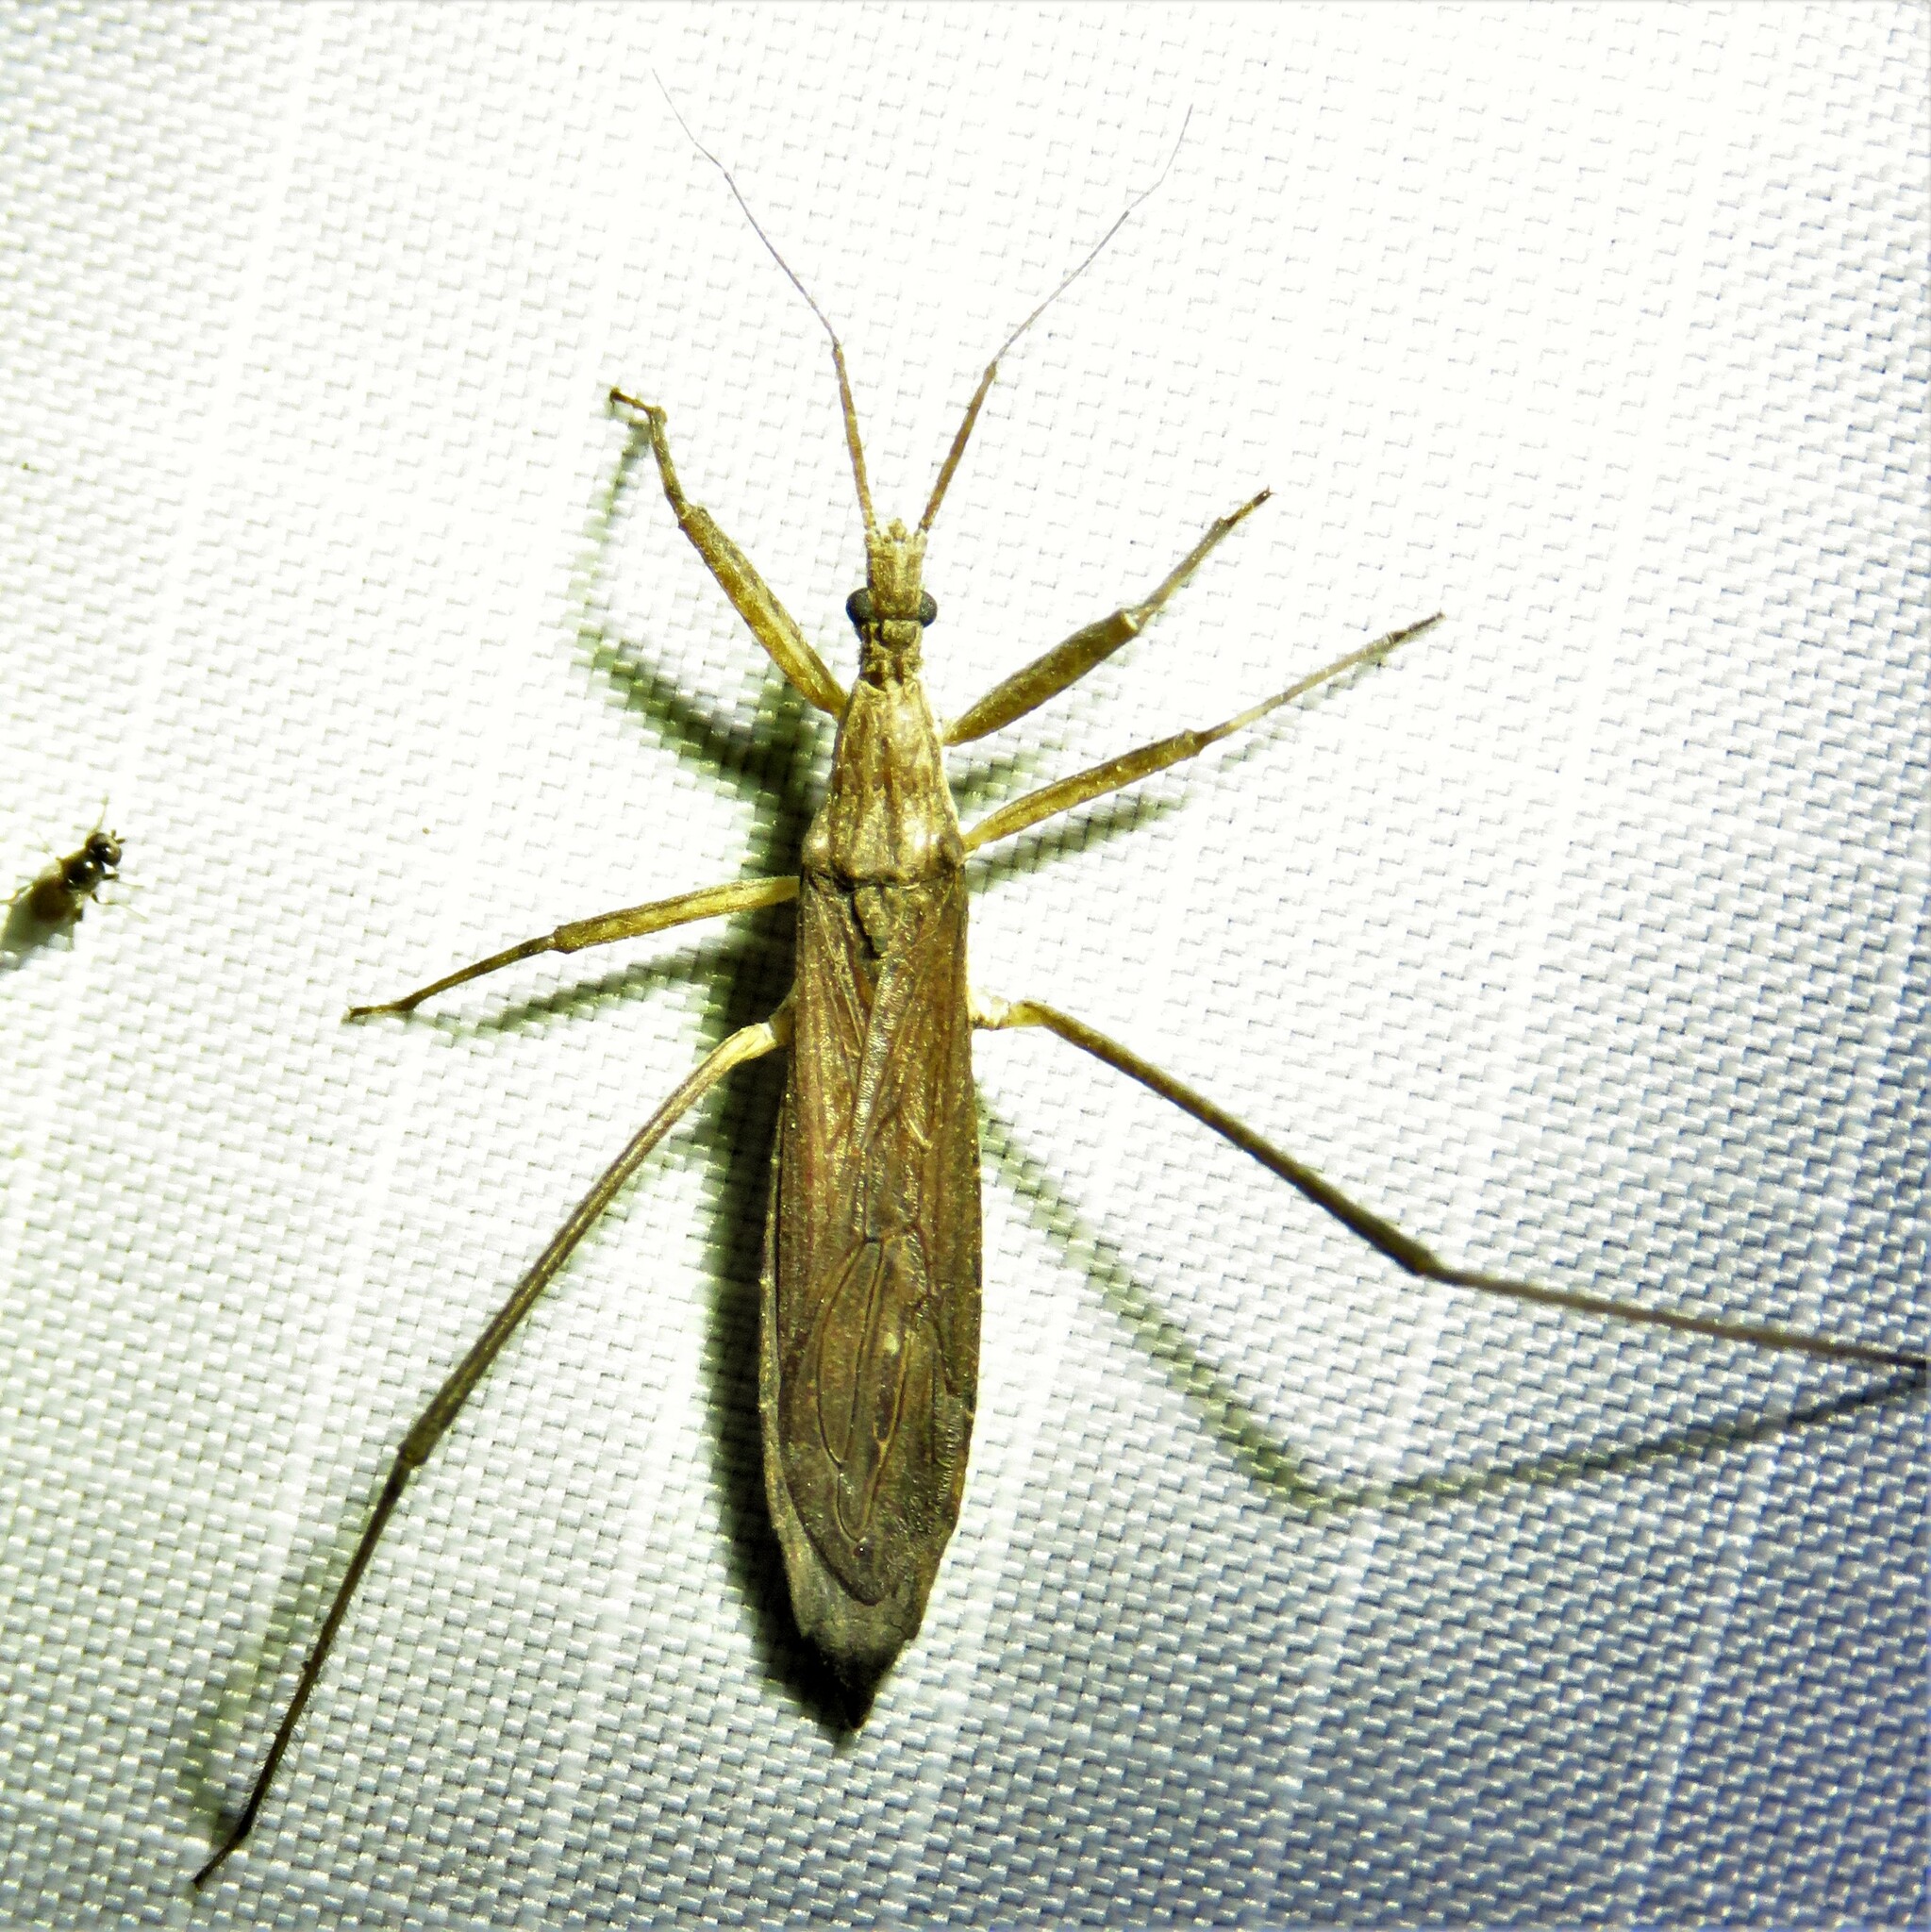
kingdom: Animalia
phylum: Arthropoda
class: Insecta
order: Hemiptera
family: Reduviidae
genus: Pygolampis
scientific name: Pygolampis pectoralis
